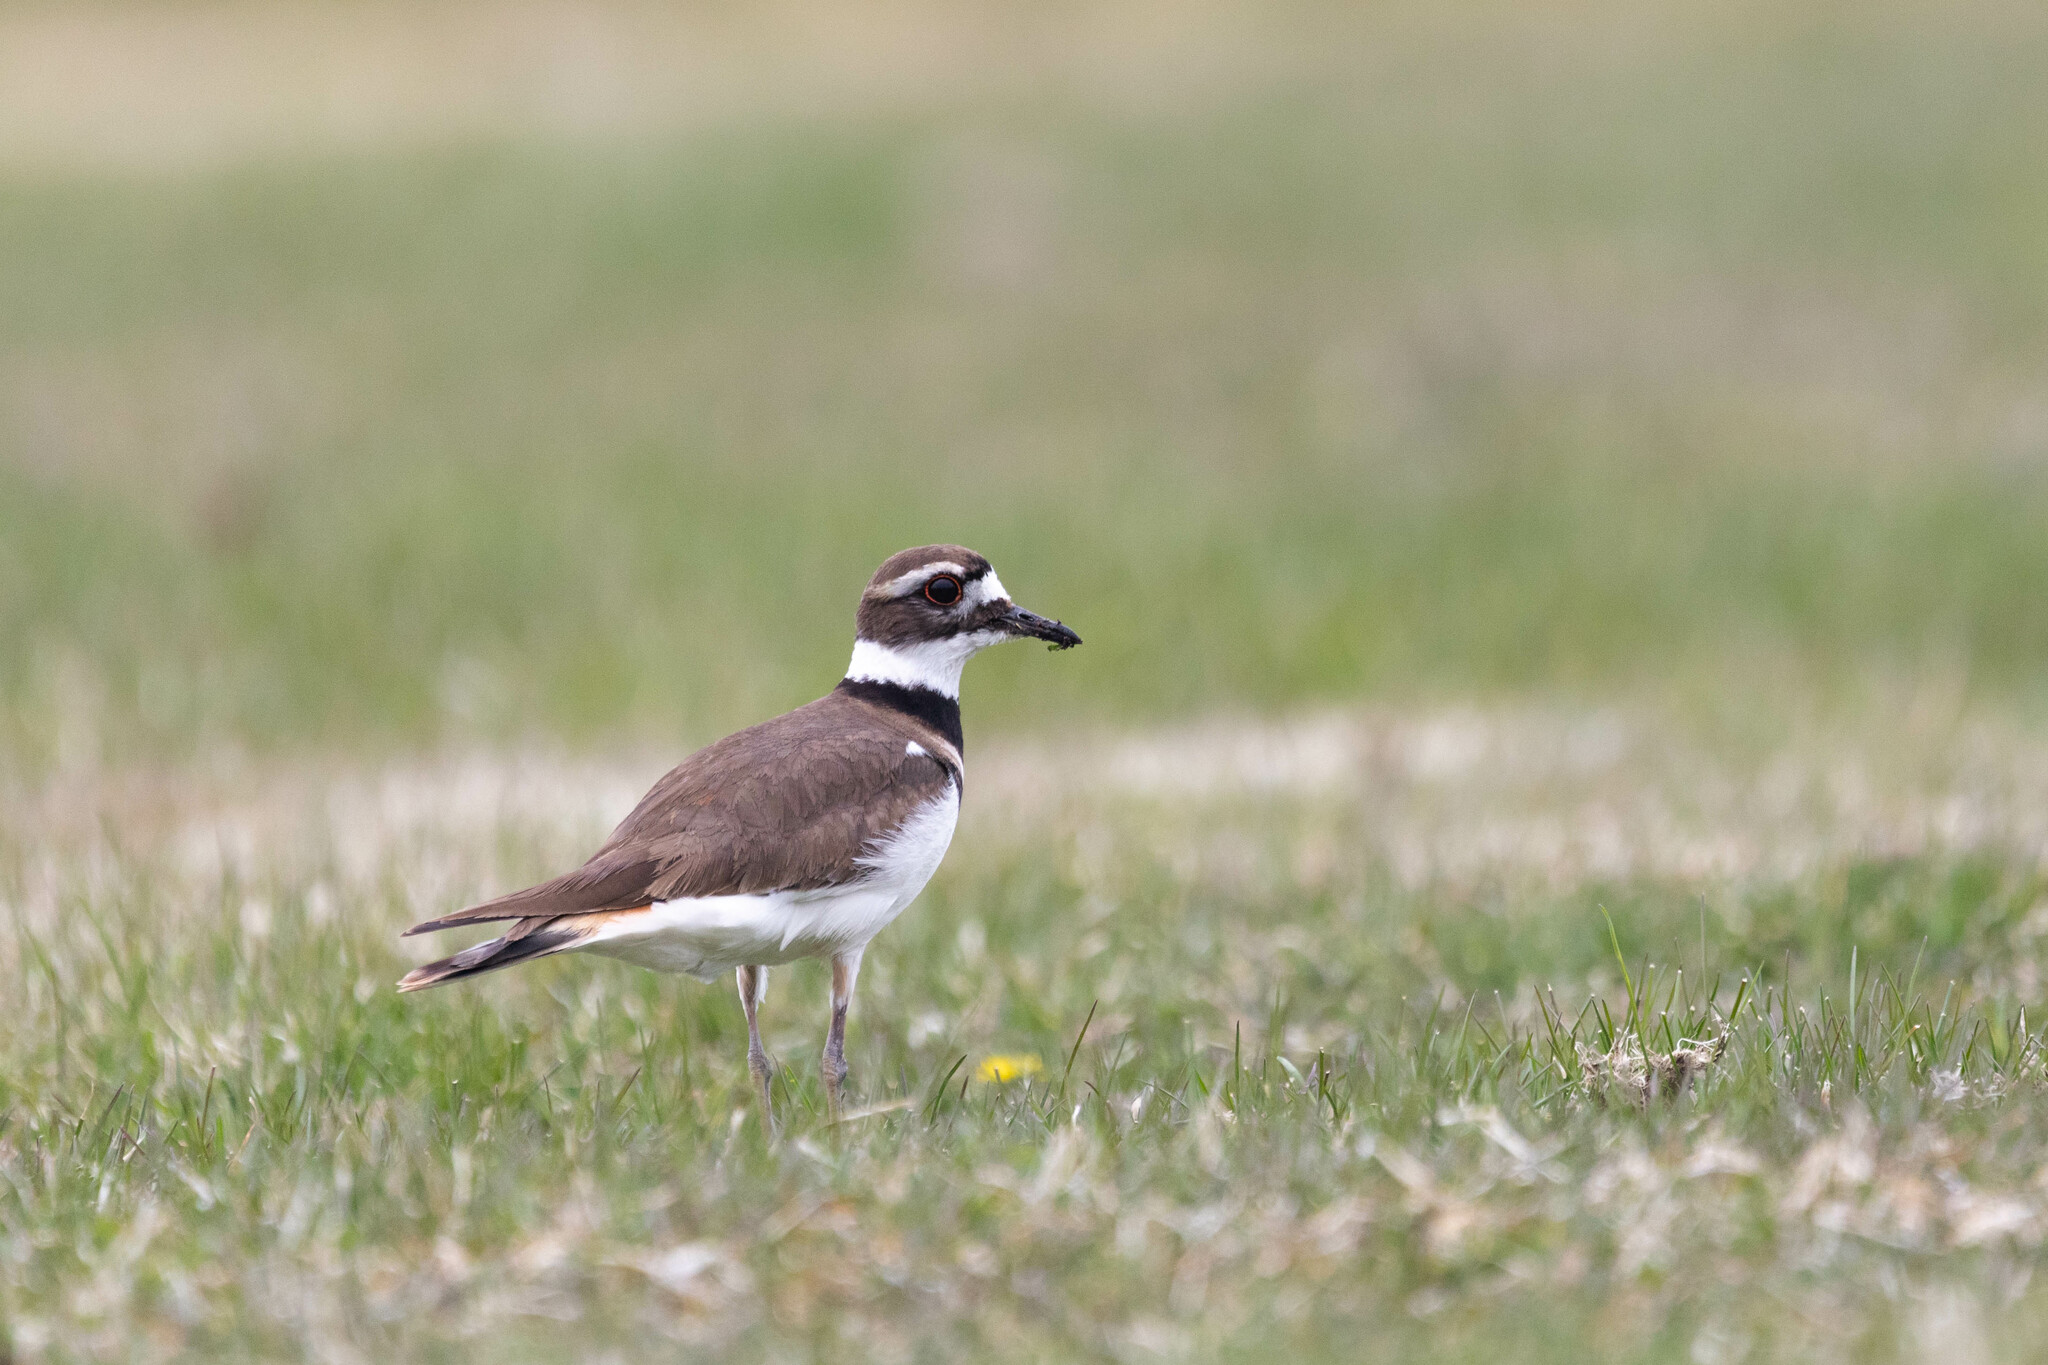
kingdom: Animalia
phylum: Chordata
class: Aves
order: Charadriiformes
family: Charadriidae
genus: Charadrius
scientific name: Charadrius vociferus
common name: Killdeer
